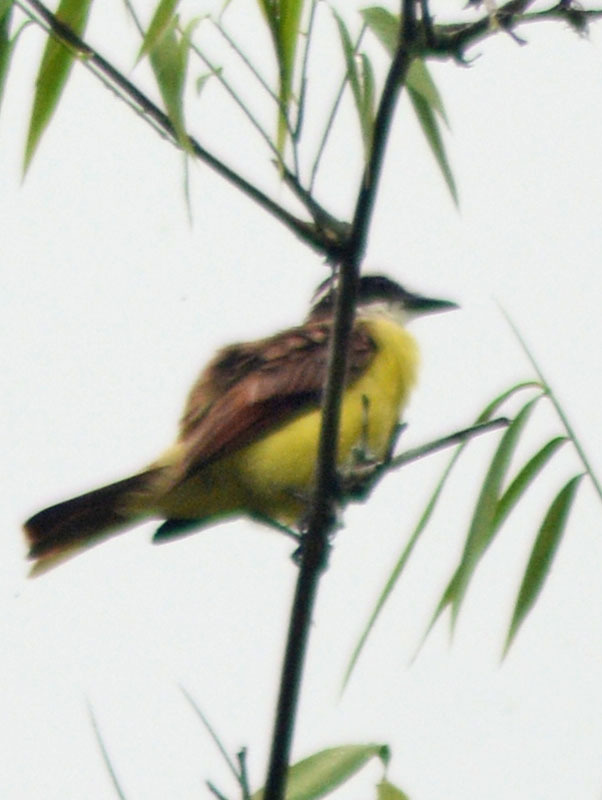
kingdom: Animalia
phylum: Chordata
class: Aves
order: Passeriformes
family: Tyrannidae
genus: Pitangus
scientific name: Pitangus sulphuratus
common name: Great kiskadee
